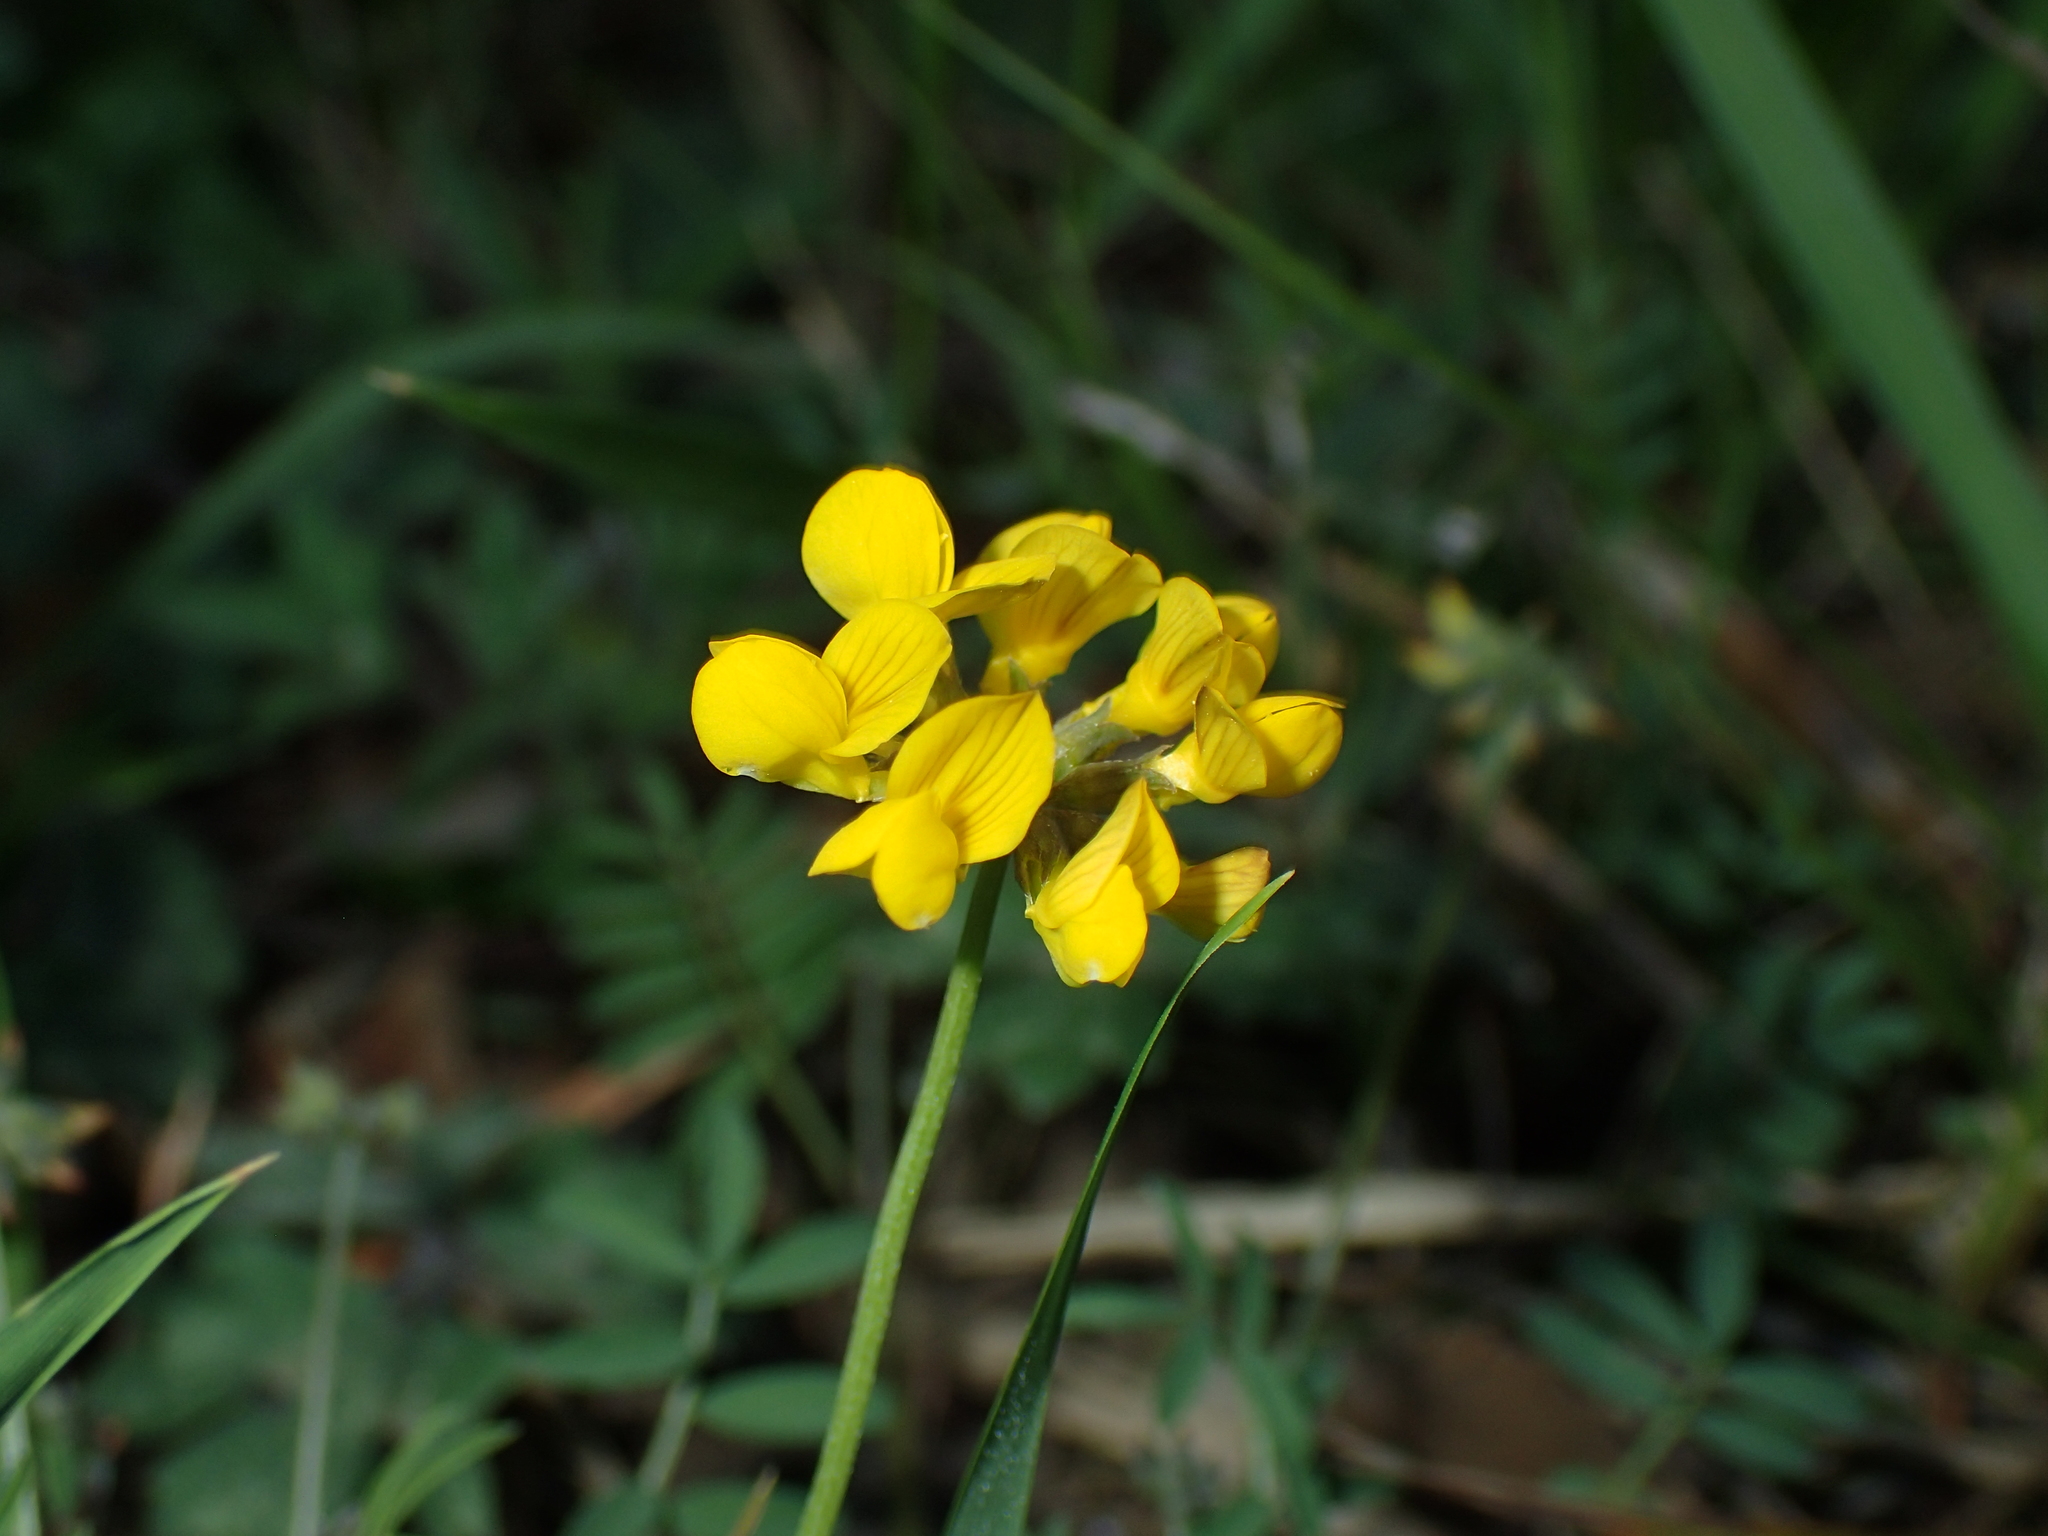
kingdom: Plantae
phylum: Tracheophyta
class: Magnoliopsida
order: Fabales
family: Fabaceae
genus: Hippocrepis
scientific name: Hippocrepis comosa
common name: Horseshoe vetch
